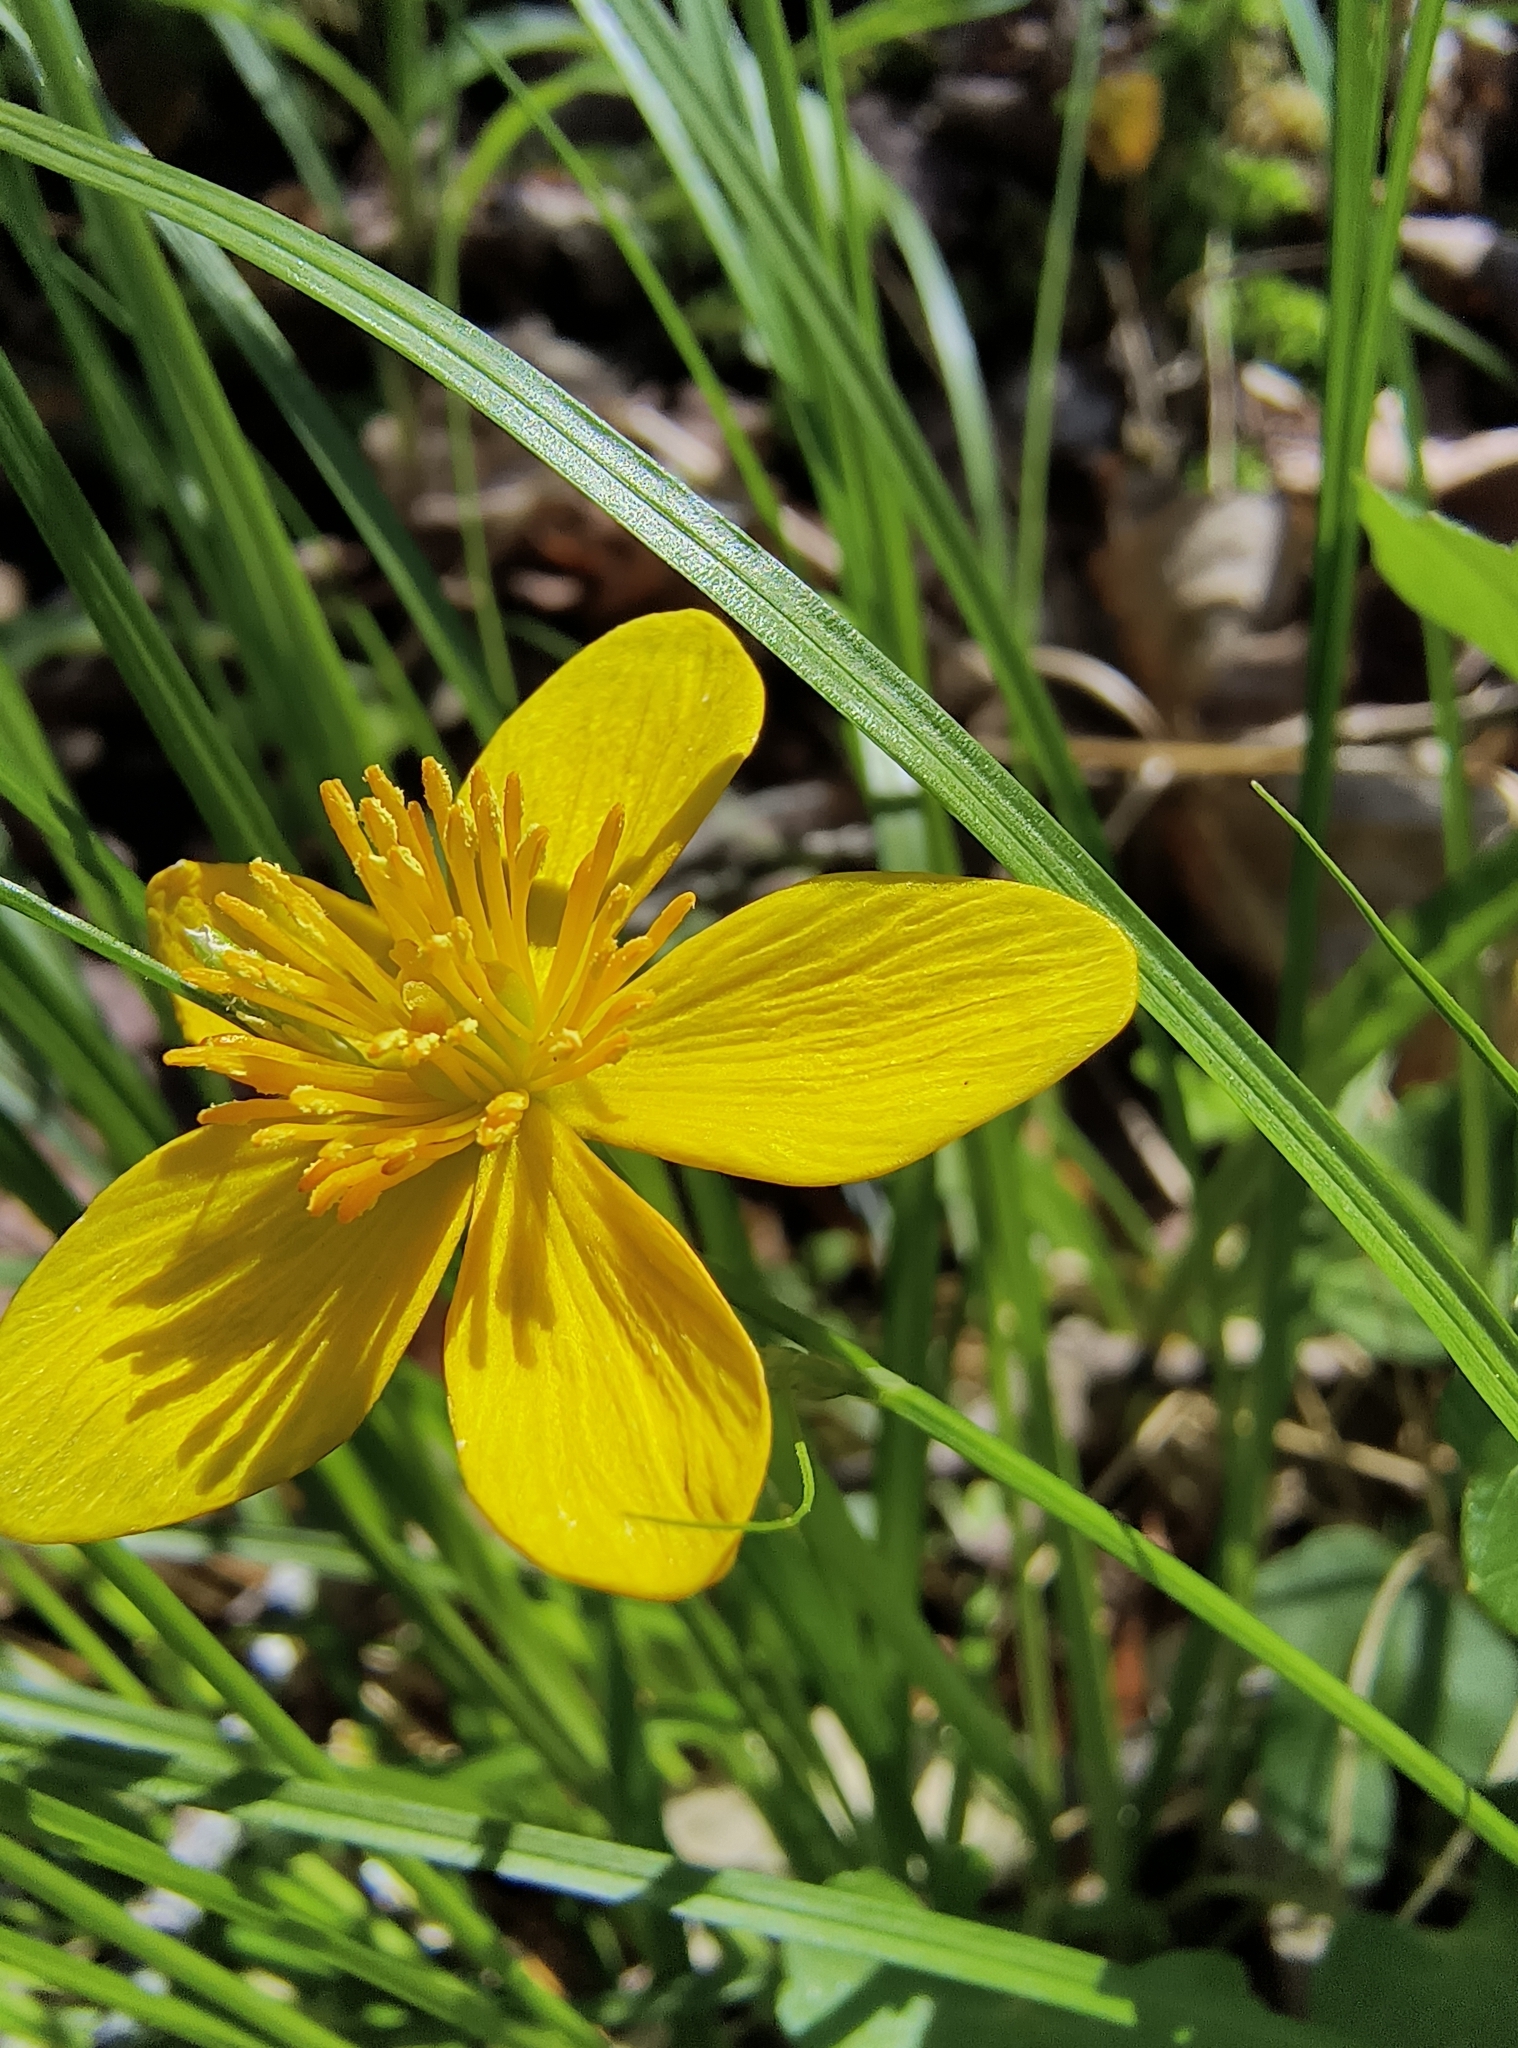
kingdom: Plantae
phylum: Tracheophyta
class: Magnoliopsida
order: Ranunculales
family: Ranunculaceae
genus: Caltha
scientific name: Caltha palustris
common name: Marsh marigold
